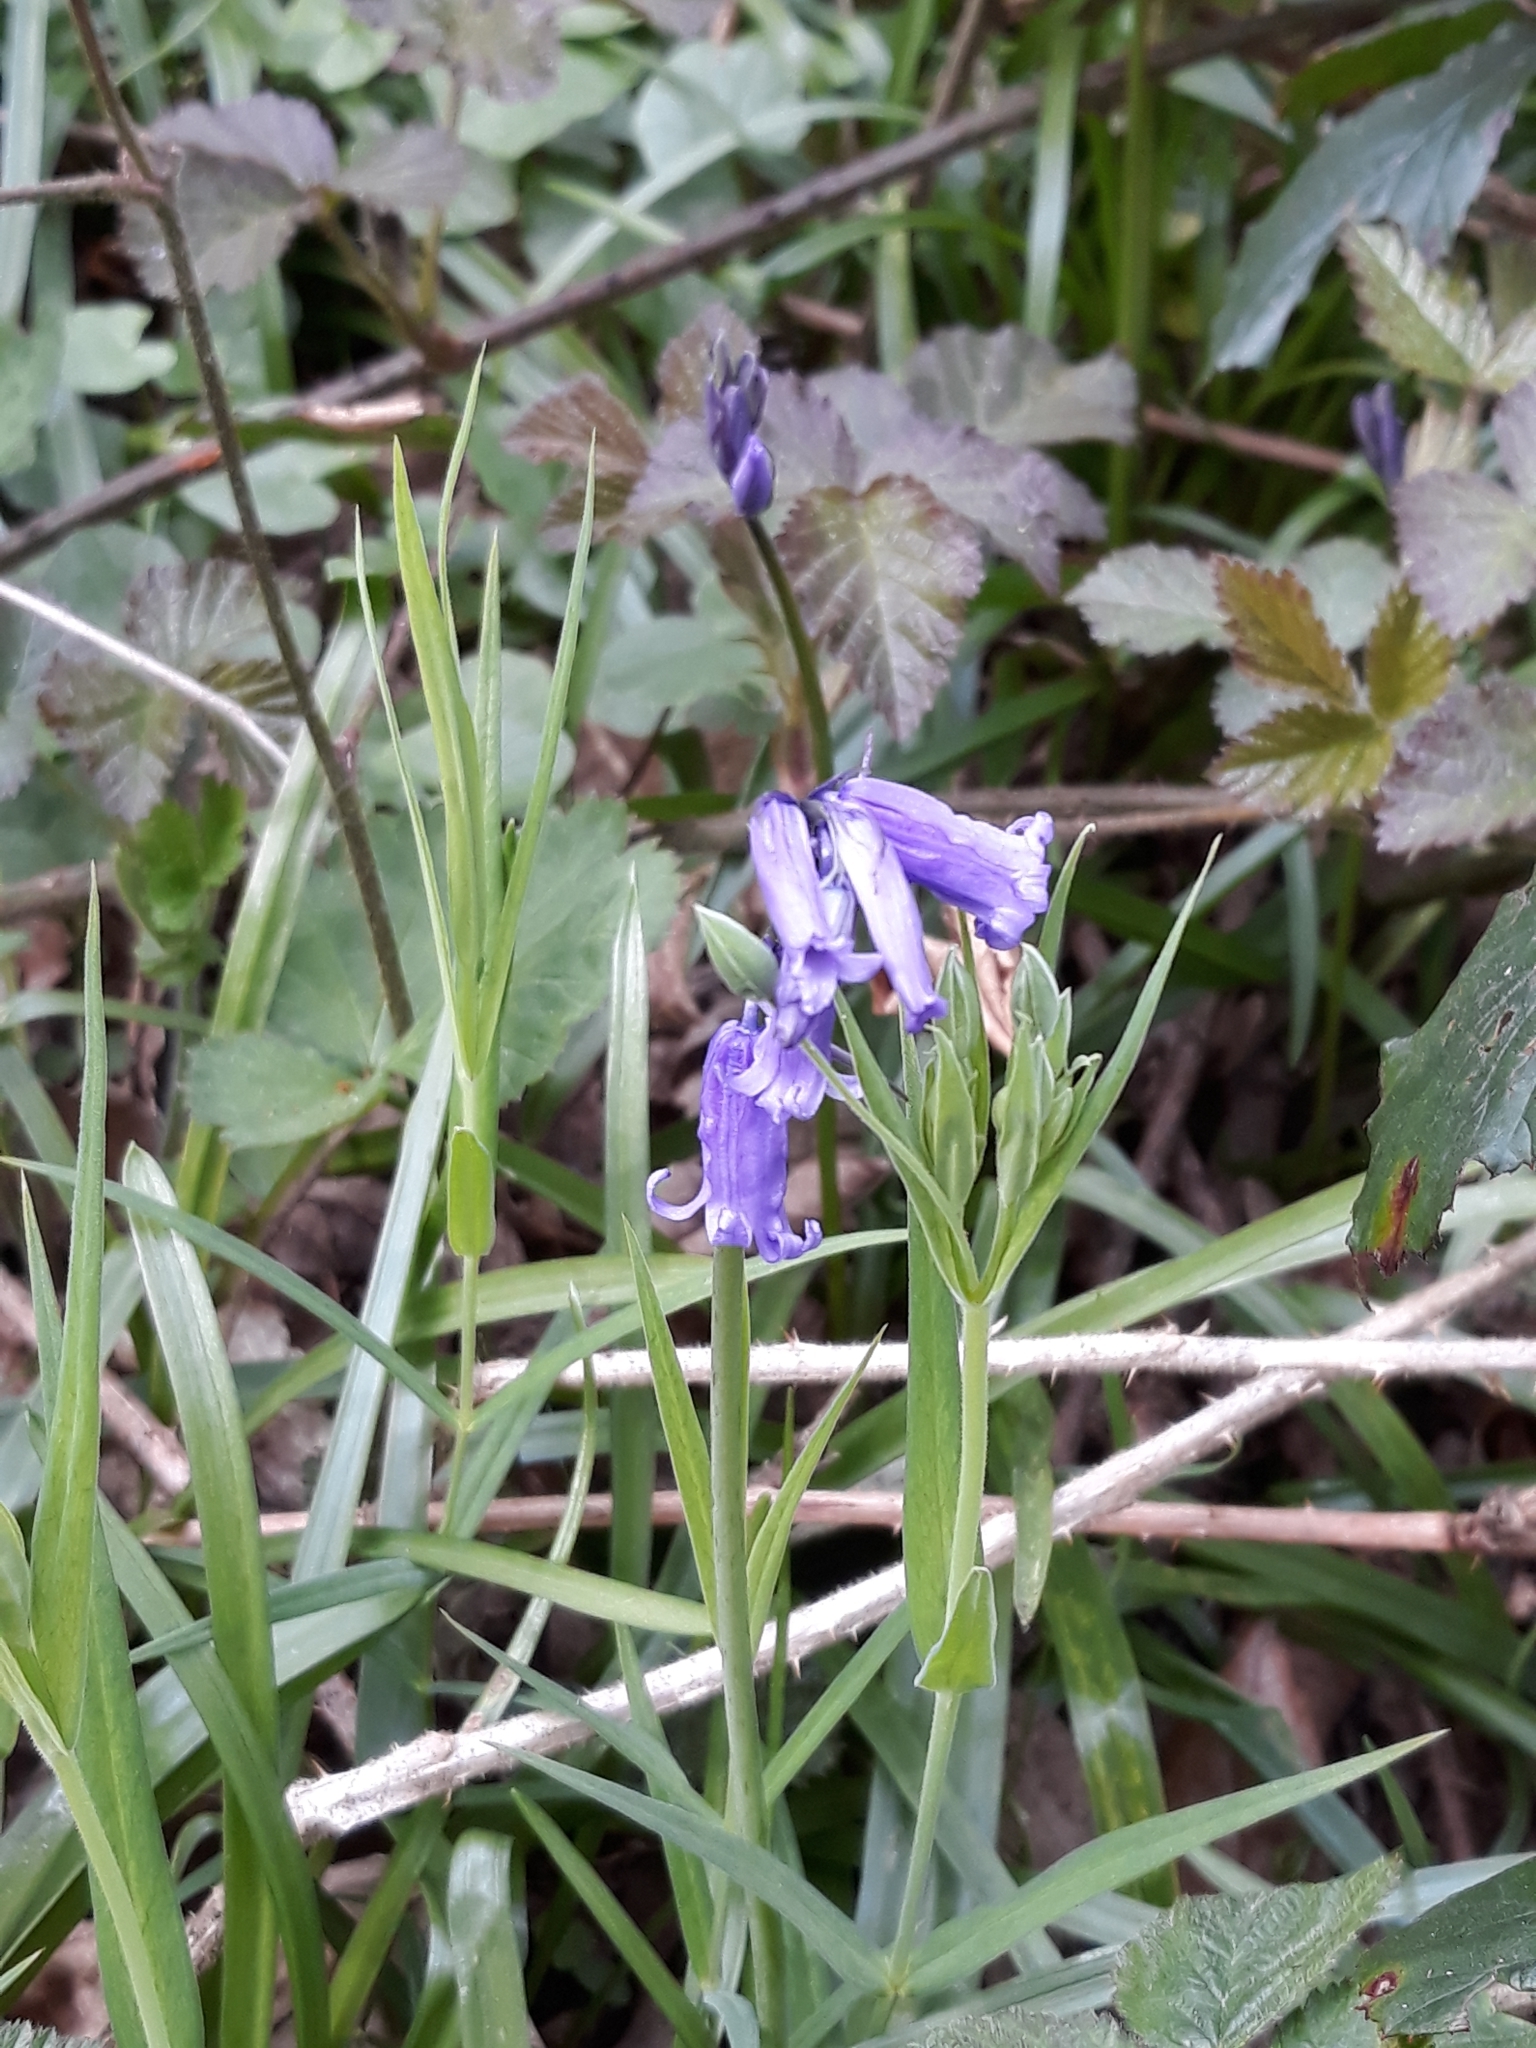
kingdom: Plantae
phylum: Tracheophyta
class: Liliopsida
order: Asparagales
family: Asparagaceae
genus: Hyacinthoides
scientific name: Hyacinthoides non-scripta
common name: Bluebell
